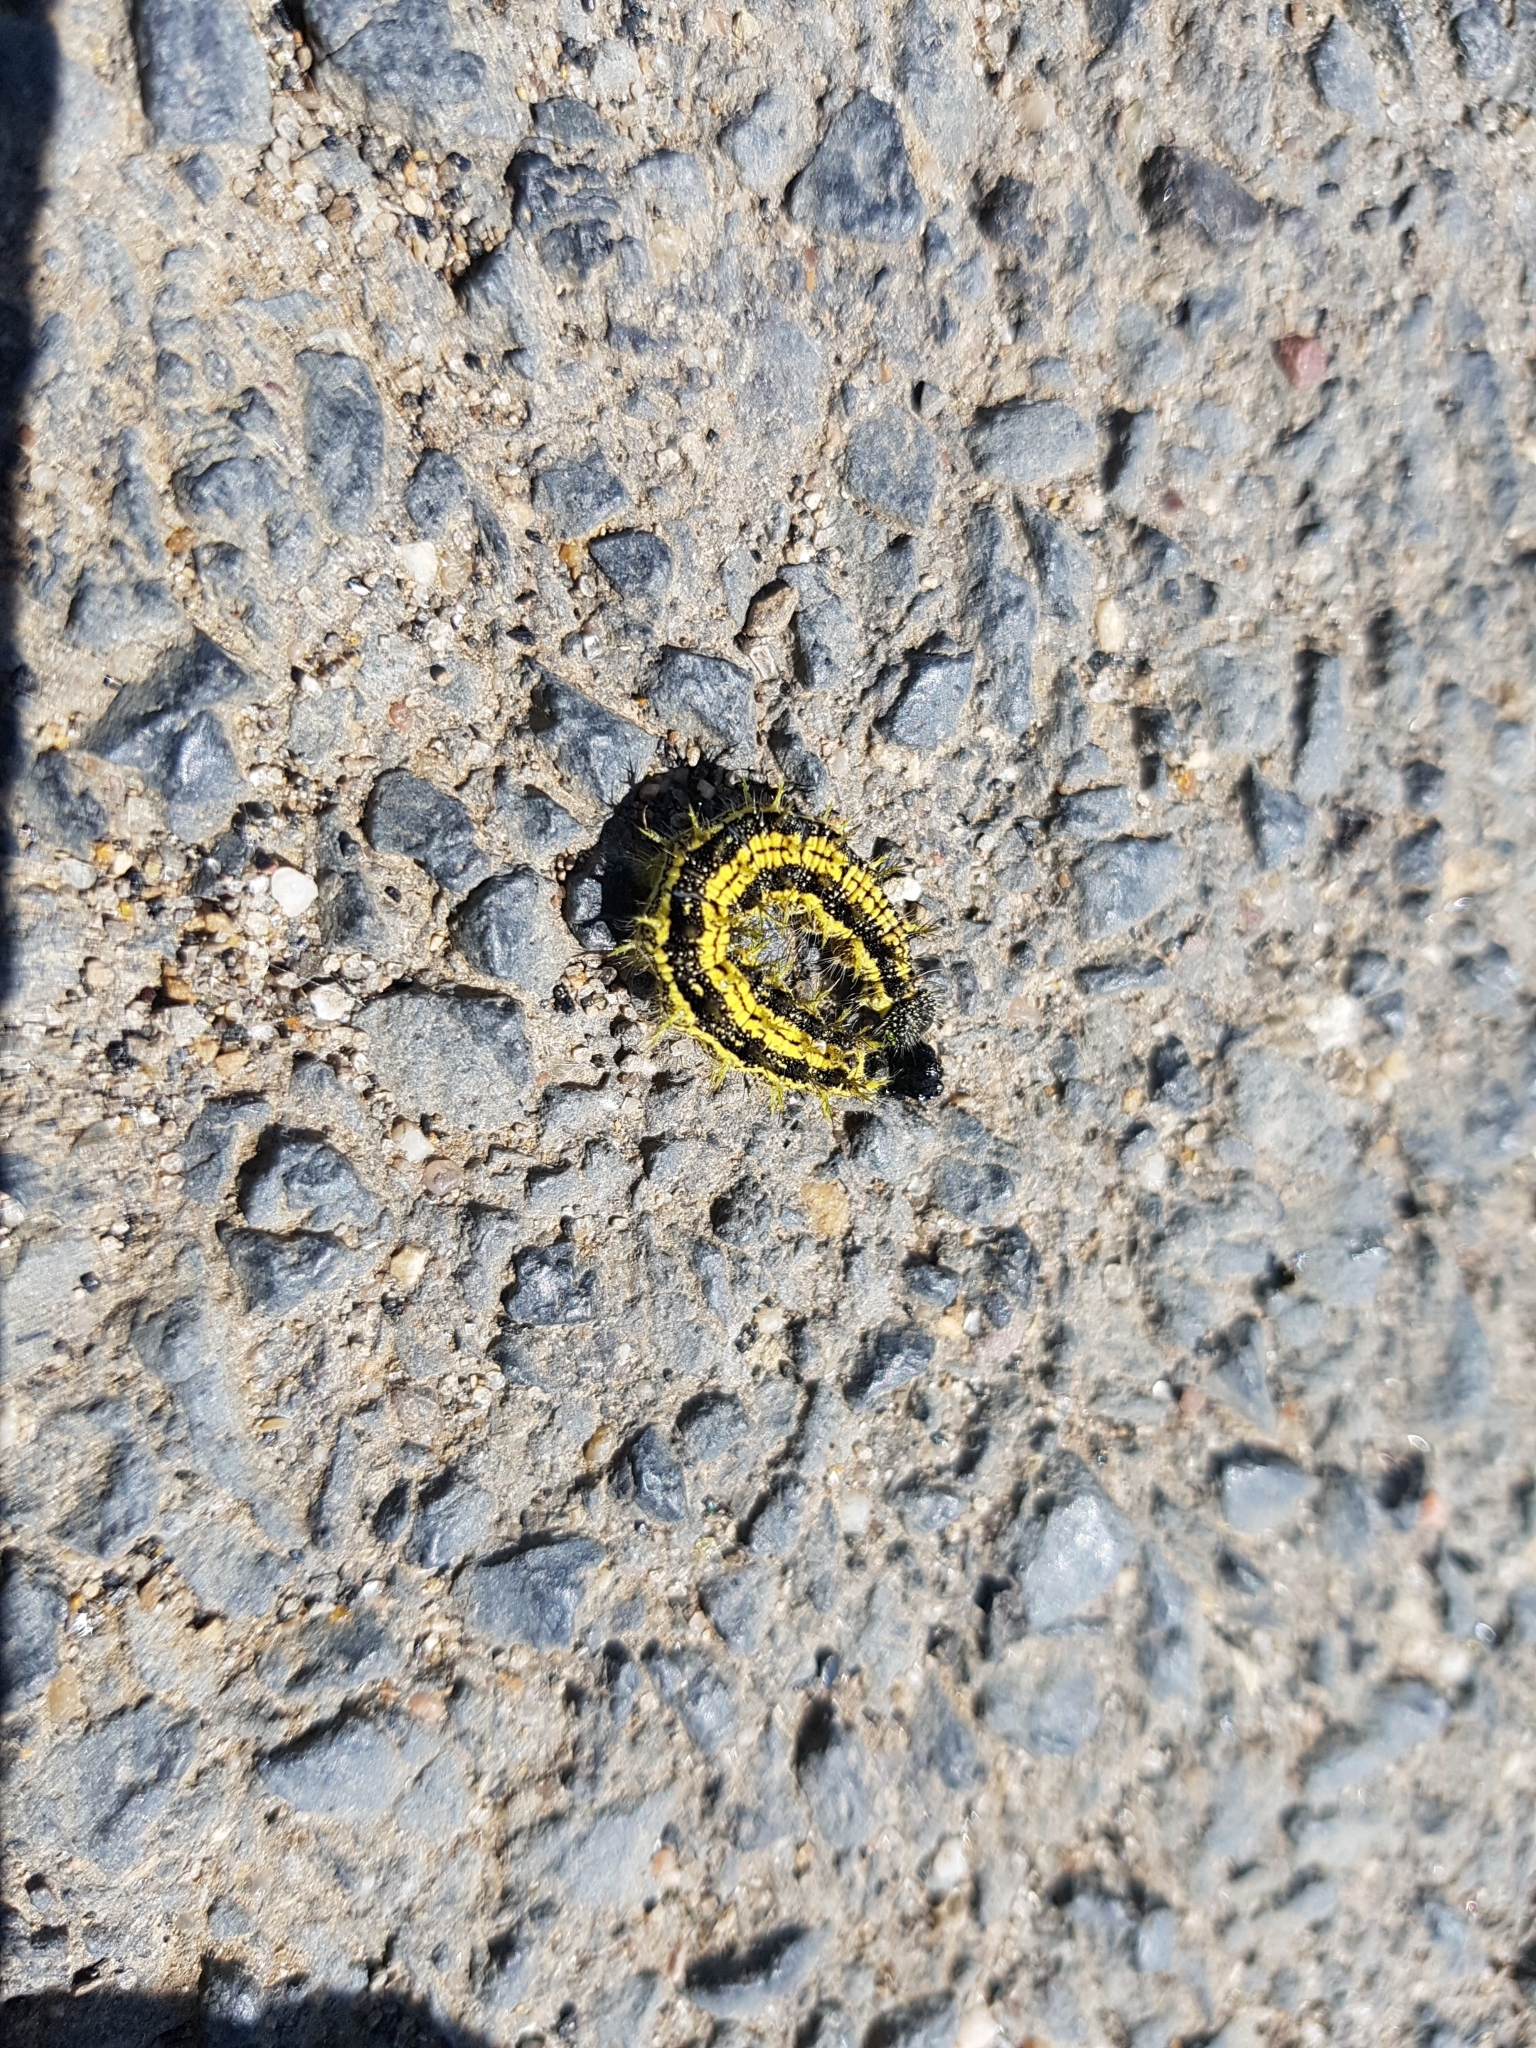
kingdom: Animalia
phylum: Arthropoda
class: Insecta
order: Lepidoptera
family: Nymphalidae
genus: Aglais
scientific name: Aglais urticae
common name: Small tortoiseshell
